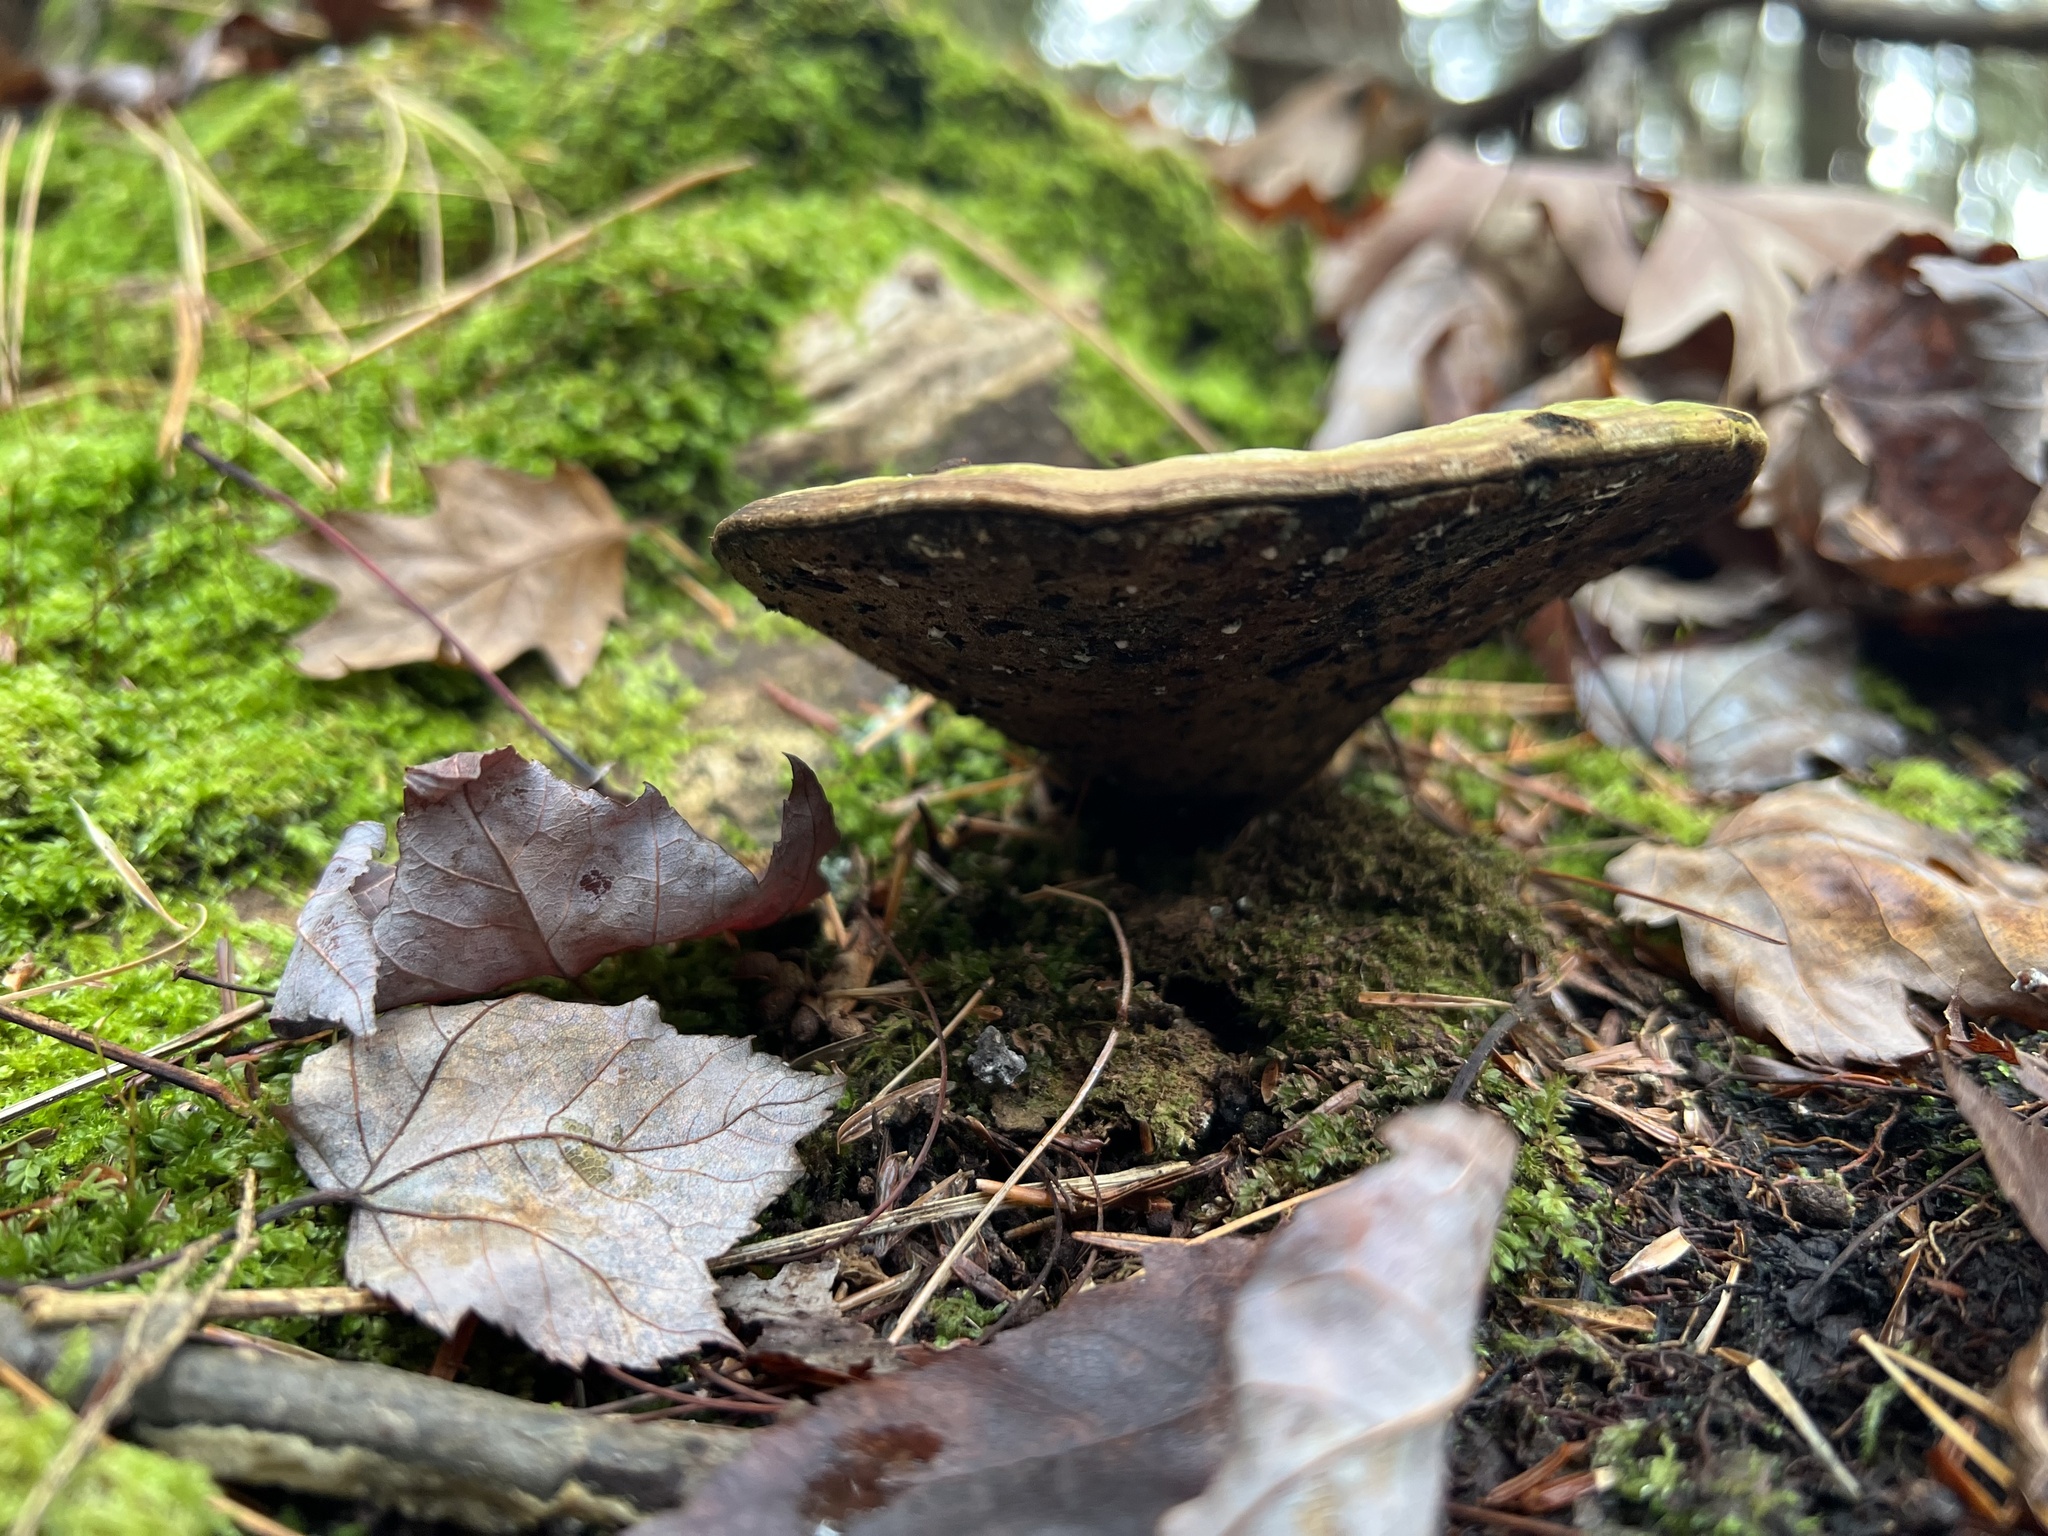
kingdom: Fungi
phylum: Basidiomycota
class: Agaricomycetes
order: Polyporales
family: Polyporaceae
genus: Ganoderma
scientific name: Ganoderma applanatum
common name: Artist's bracket
